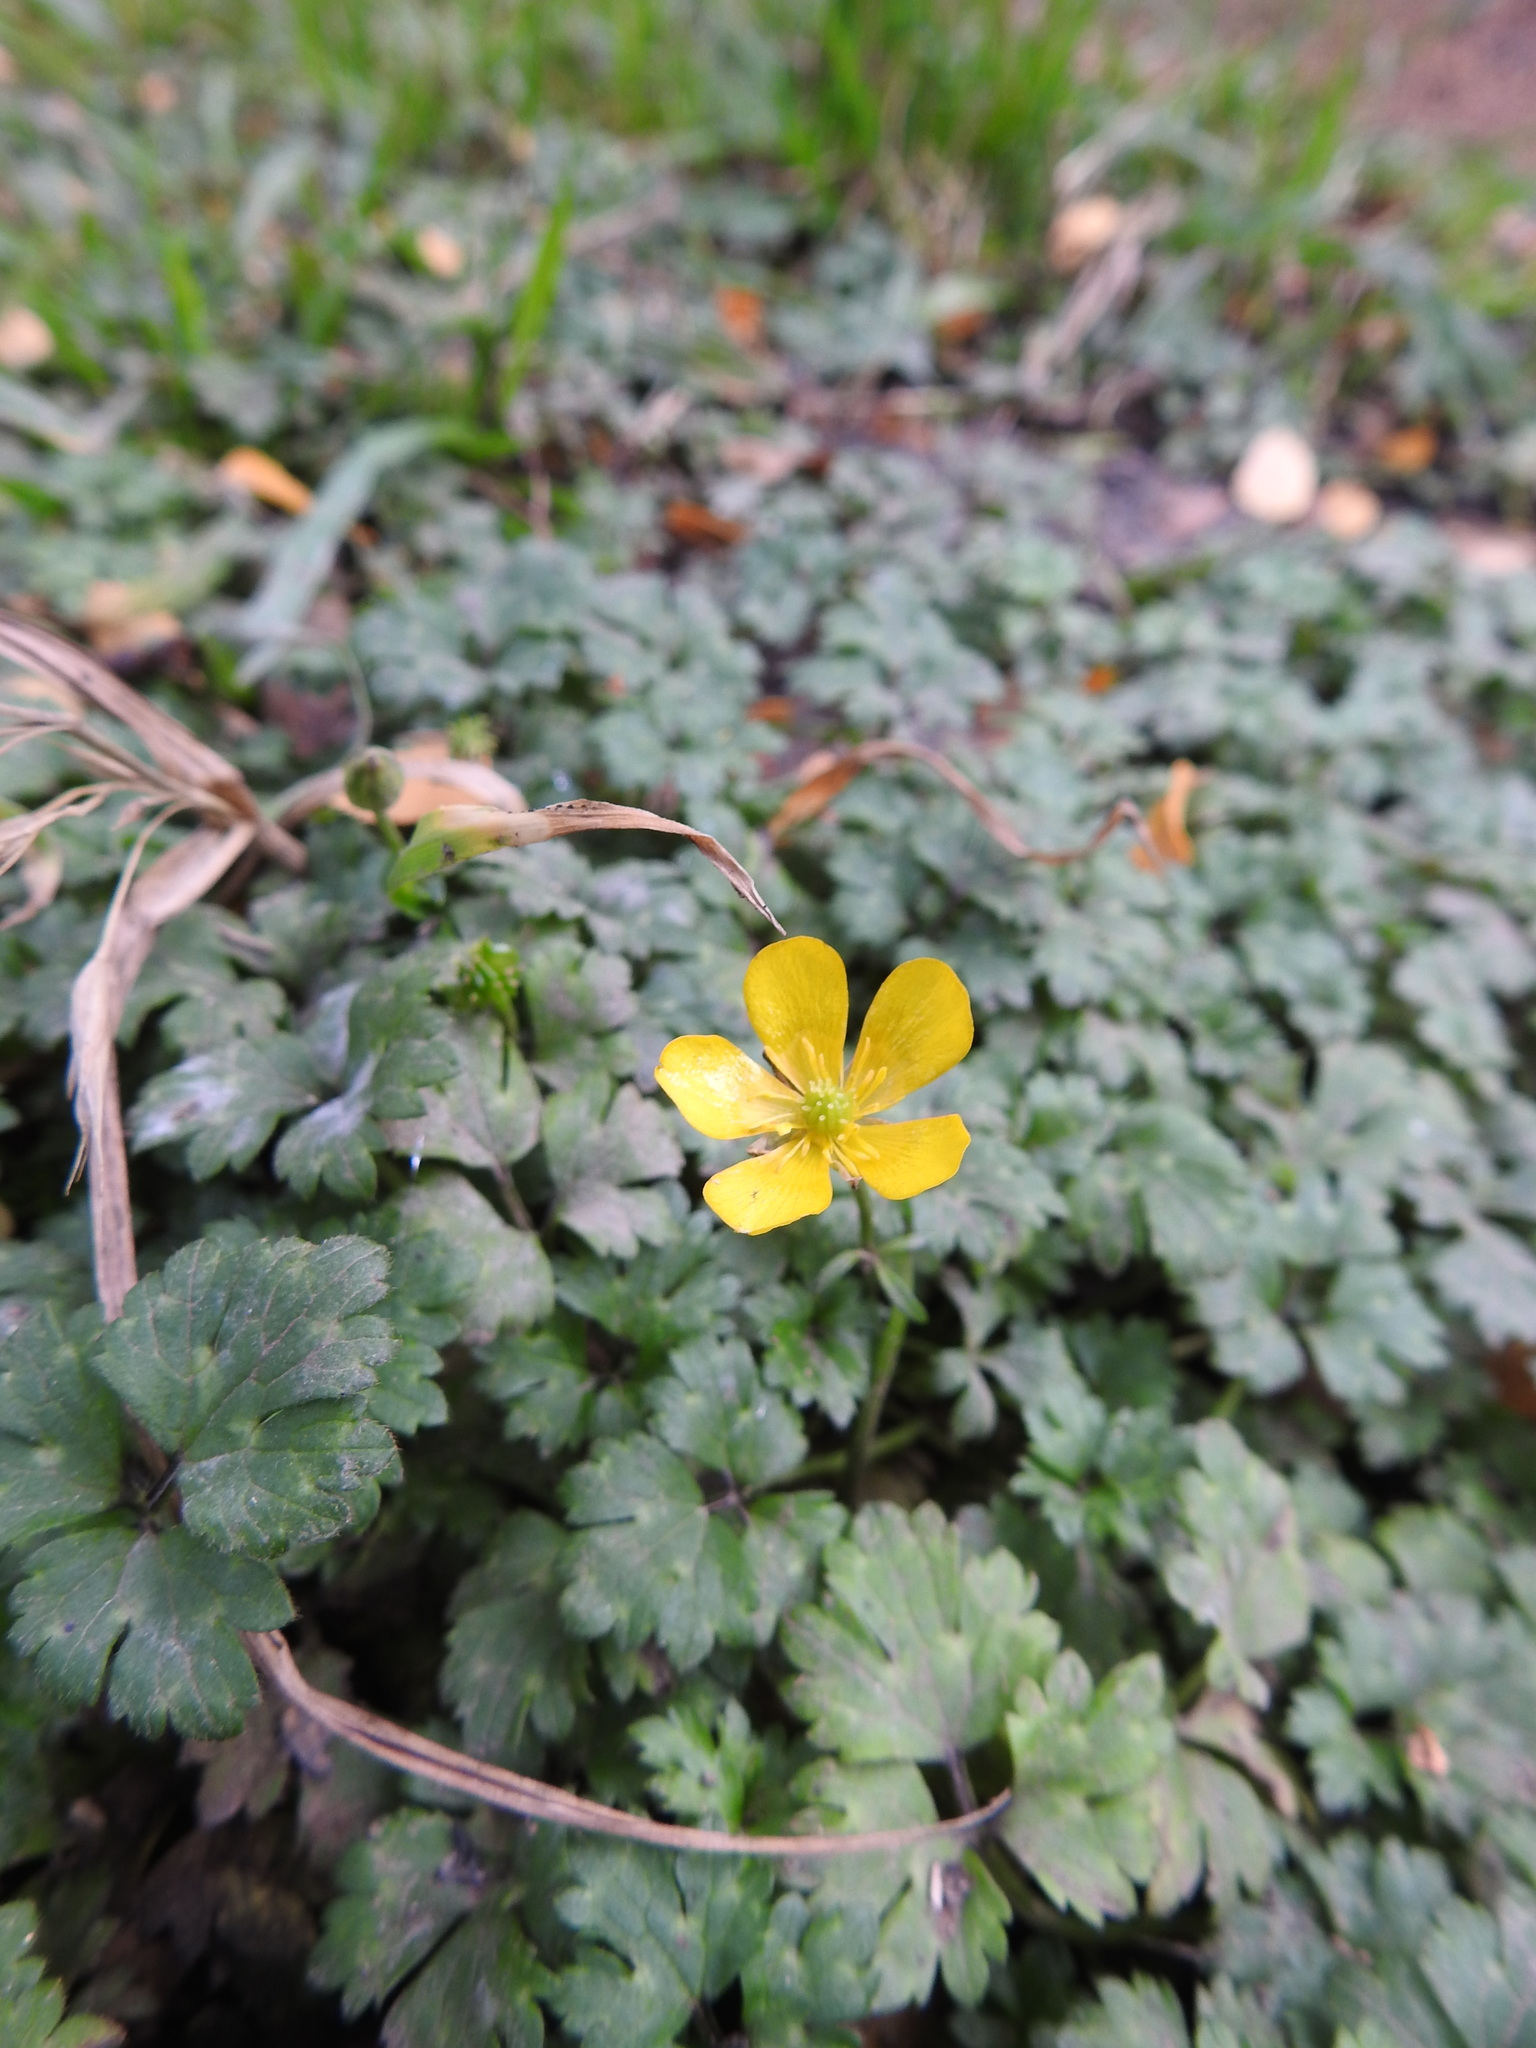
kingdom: Plantae
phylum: Tracheophyta
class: Magnoliopsida
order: Ranunculales
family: Ranunculaceae
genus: Ranunculus
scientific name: Ranunculus repens
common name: Creeping buttercup
